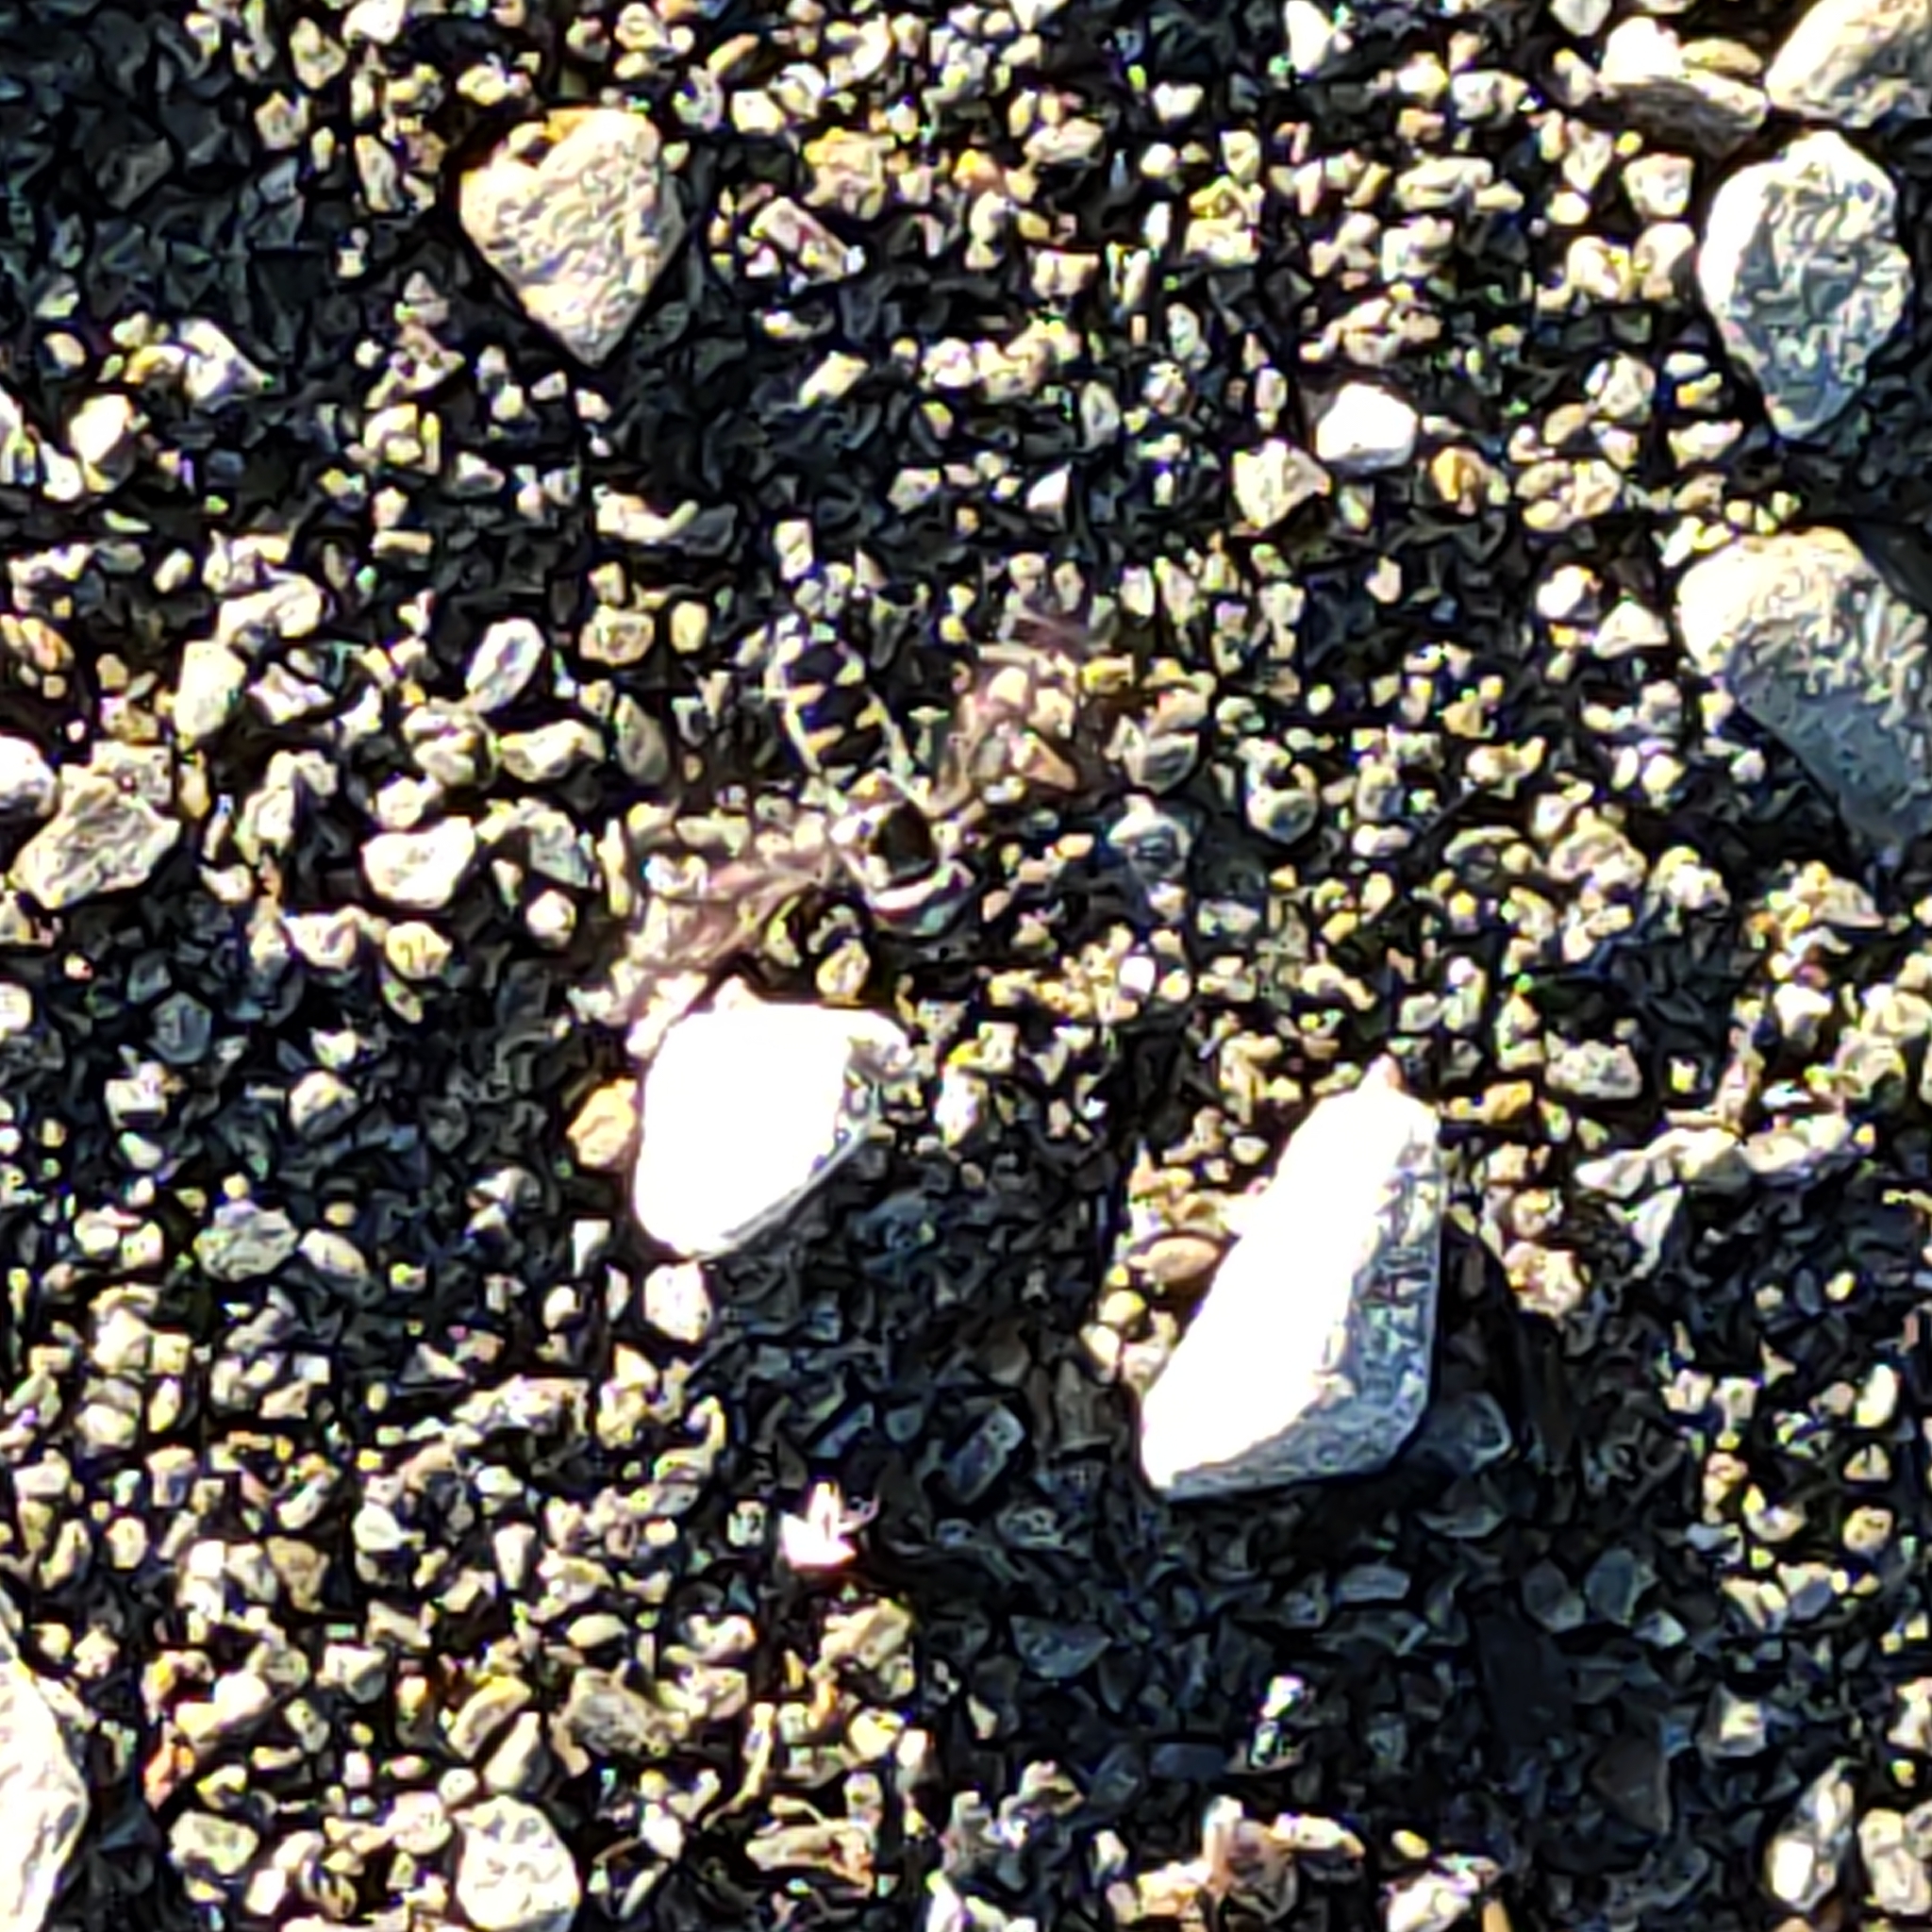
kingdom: Animalia
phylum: Arthropoda
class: Insecta
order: Diptera
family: Syrphidae
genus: Melangyna
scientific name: Melangyna novaezelandiae
